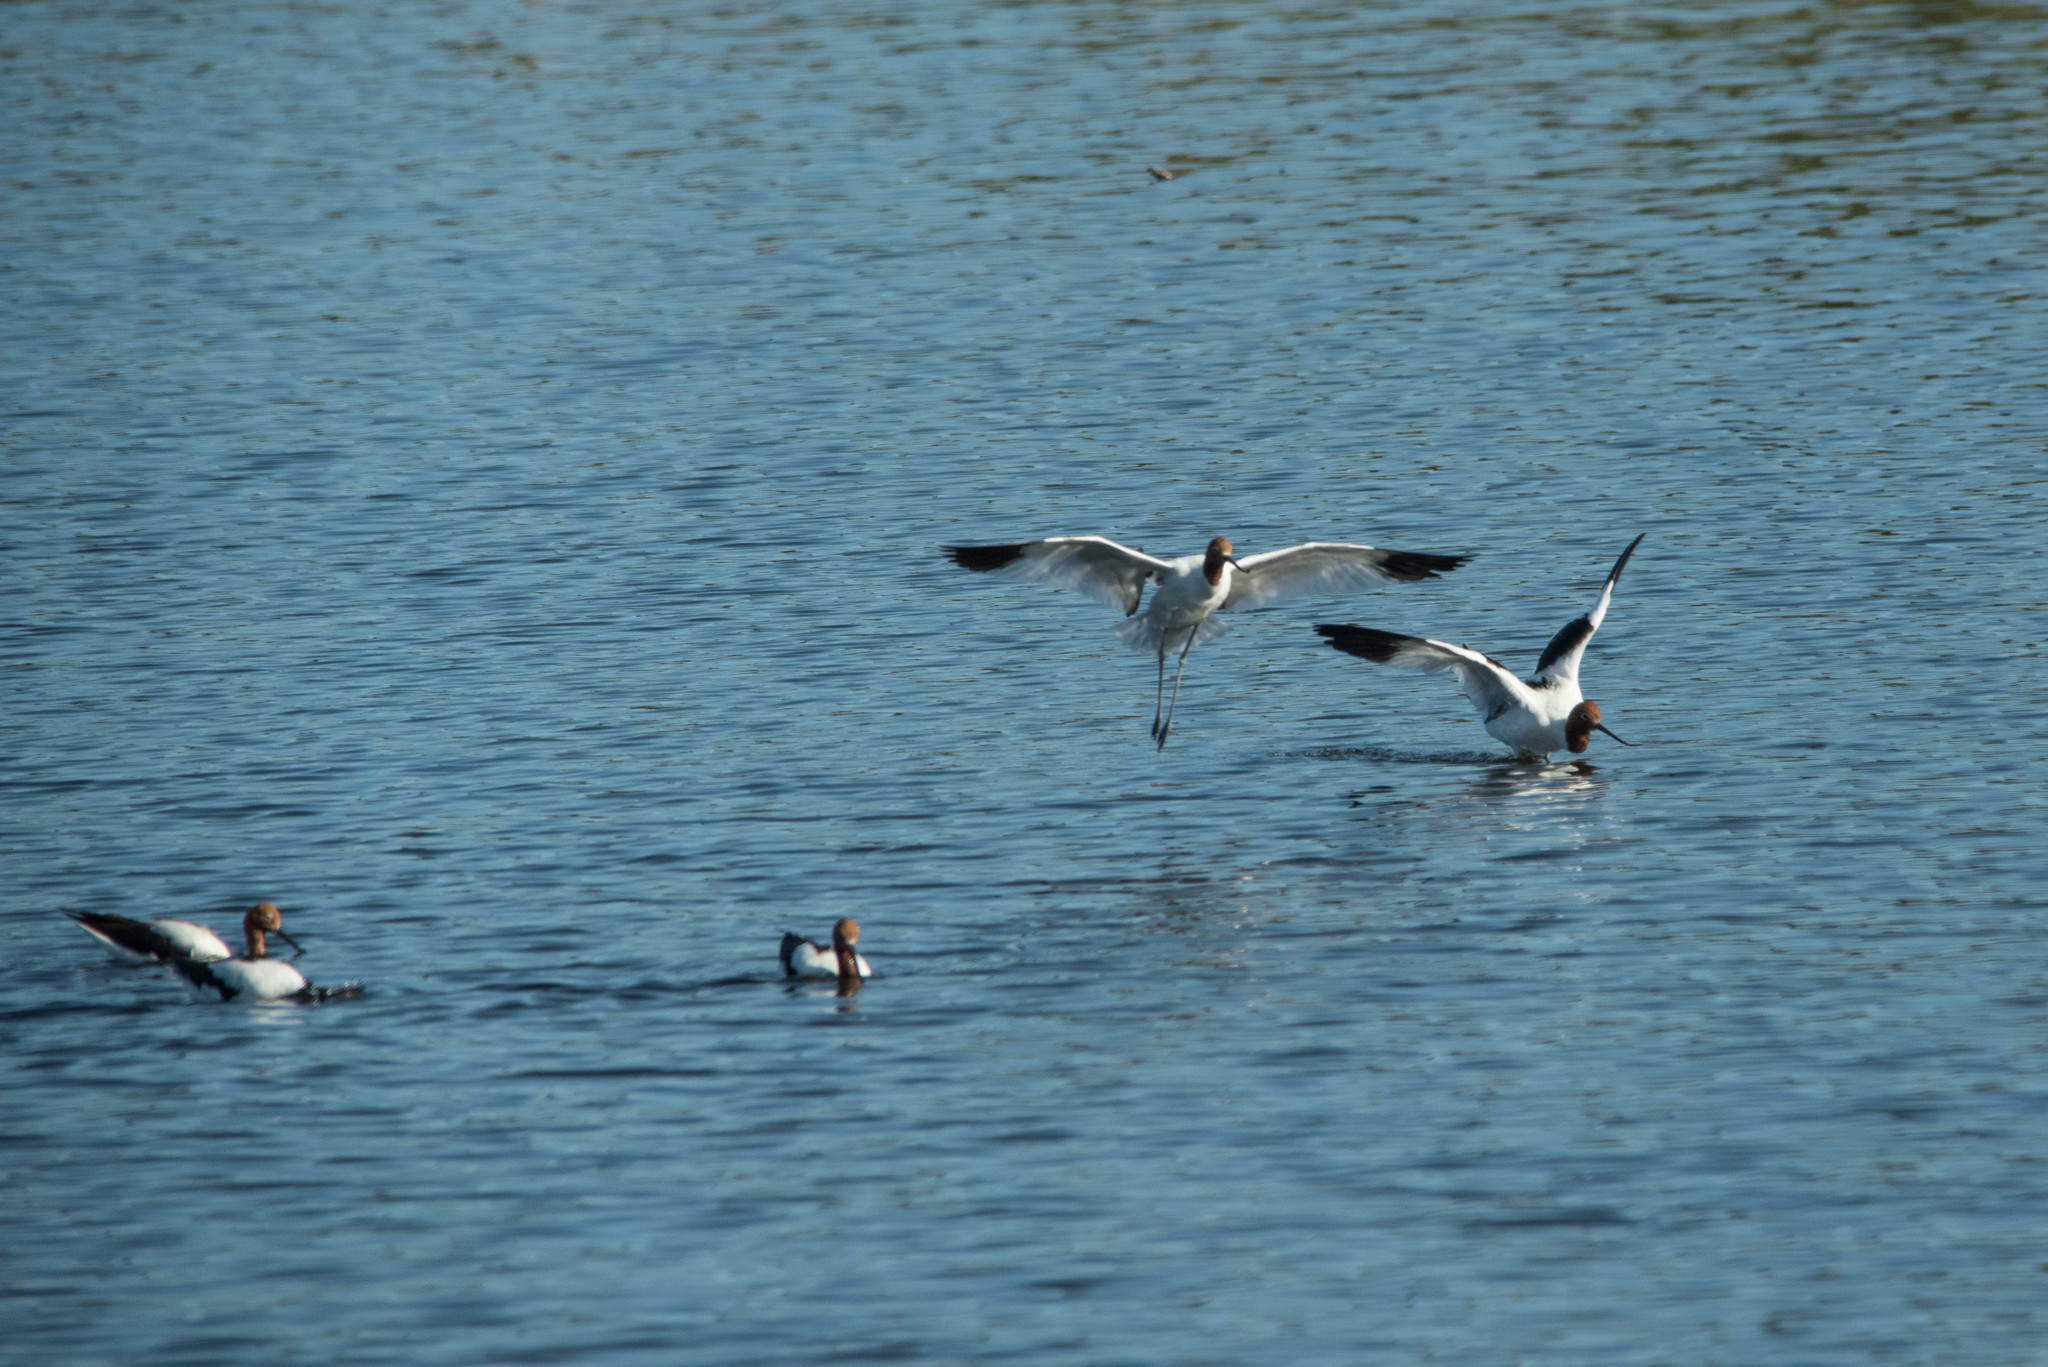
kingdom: Animalia
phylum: Chordata
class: Aves
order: Charadriiformes
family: Recurvirostridae
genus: Recurvirostra
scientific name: Recurvirostra novaehollandiae
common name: Red-necked avocet
